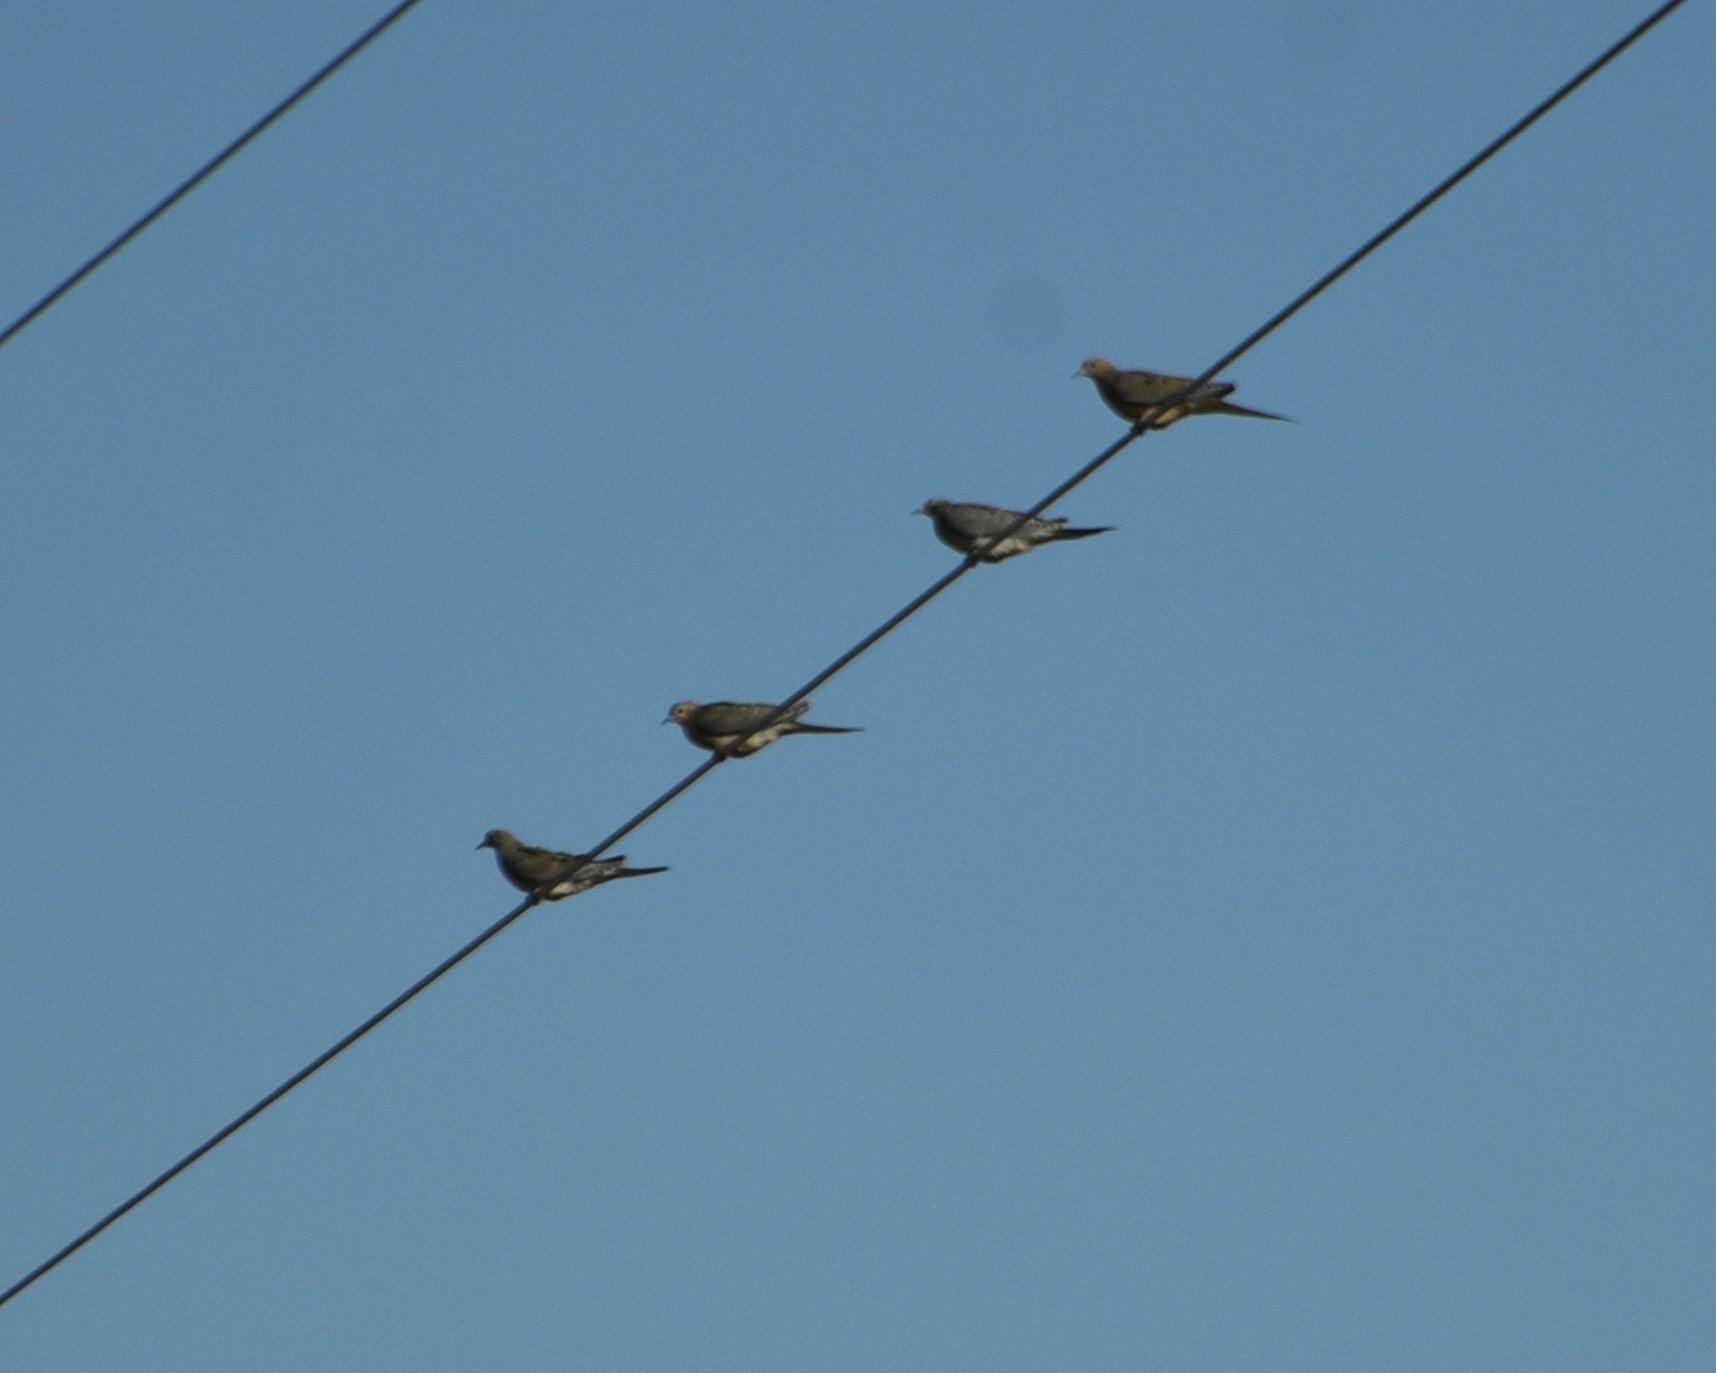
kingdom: Animalia
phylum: Chordata
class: Aves
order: Columbiformes
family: Columbidae
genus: Zenaida
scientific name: Zenaida macroura
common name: Mourning dove
